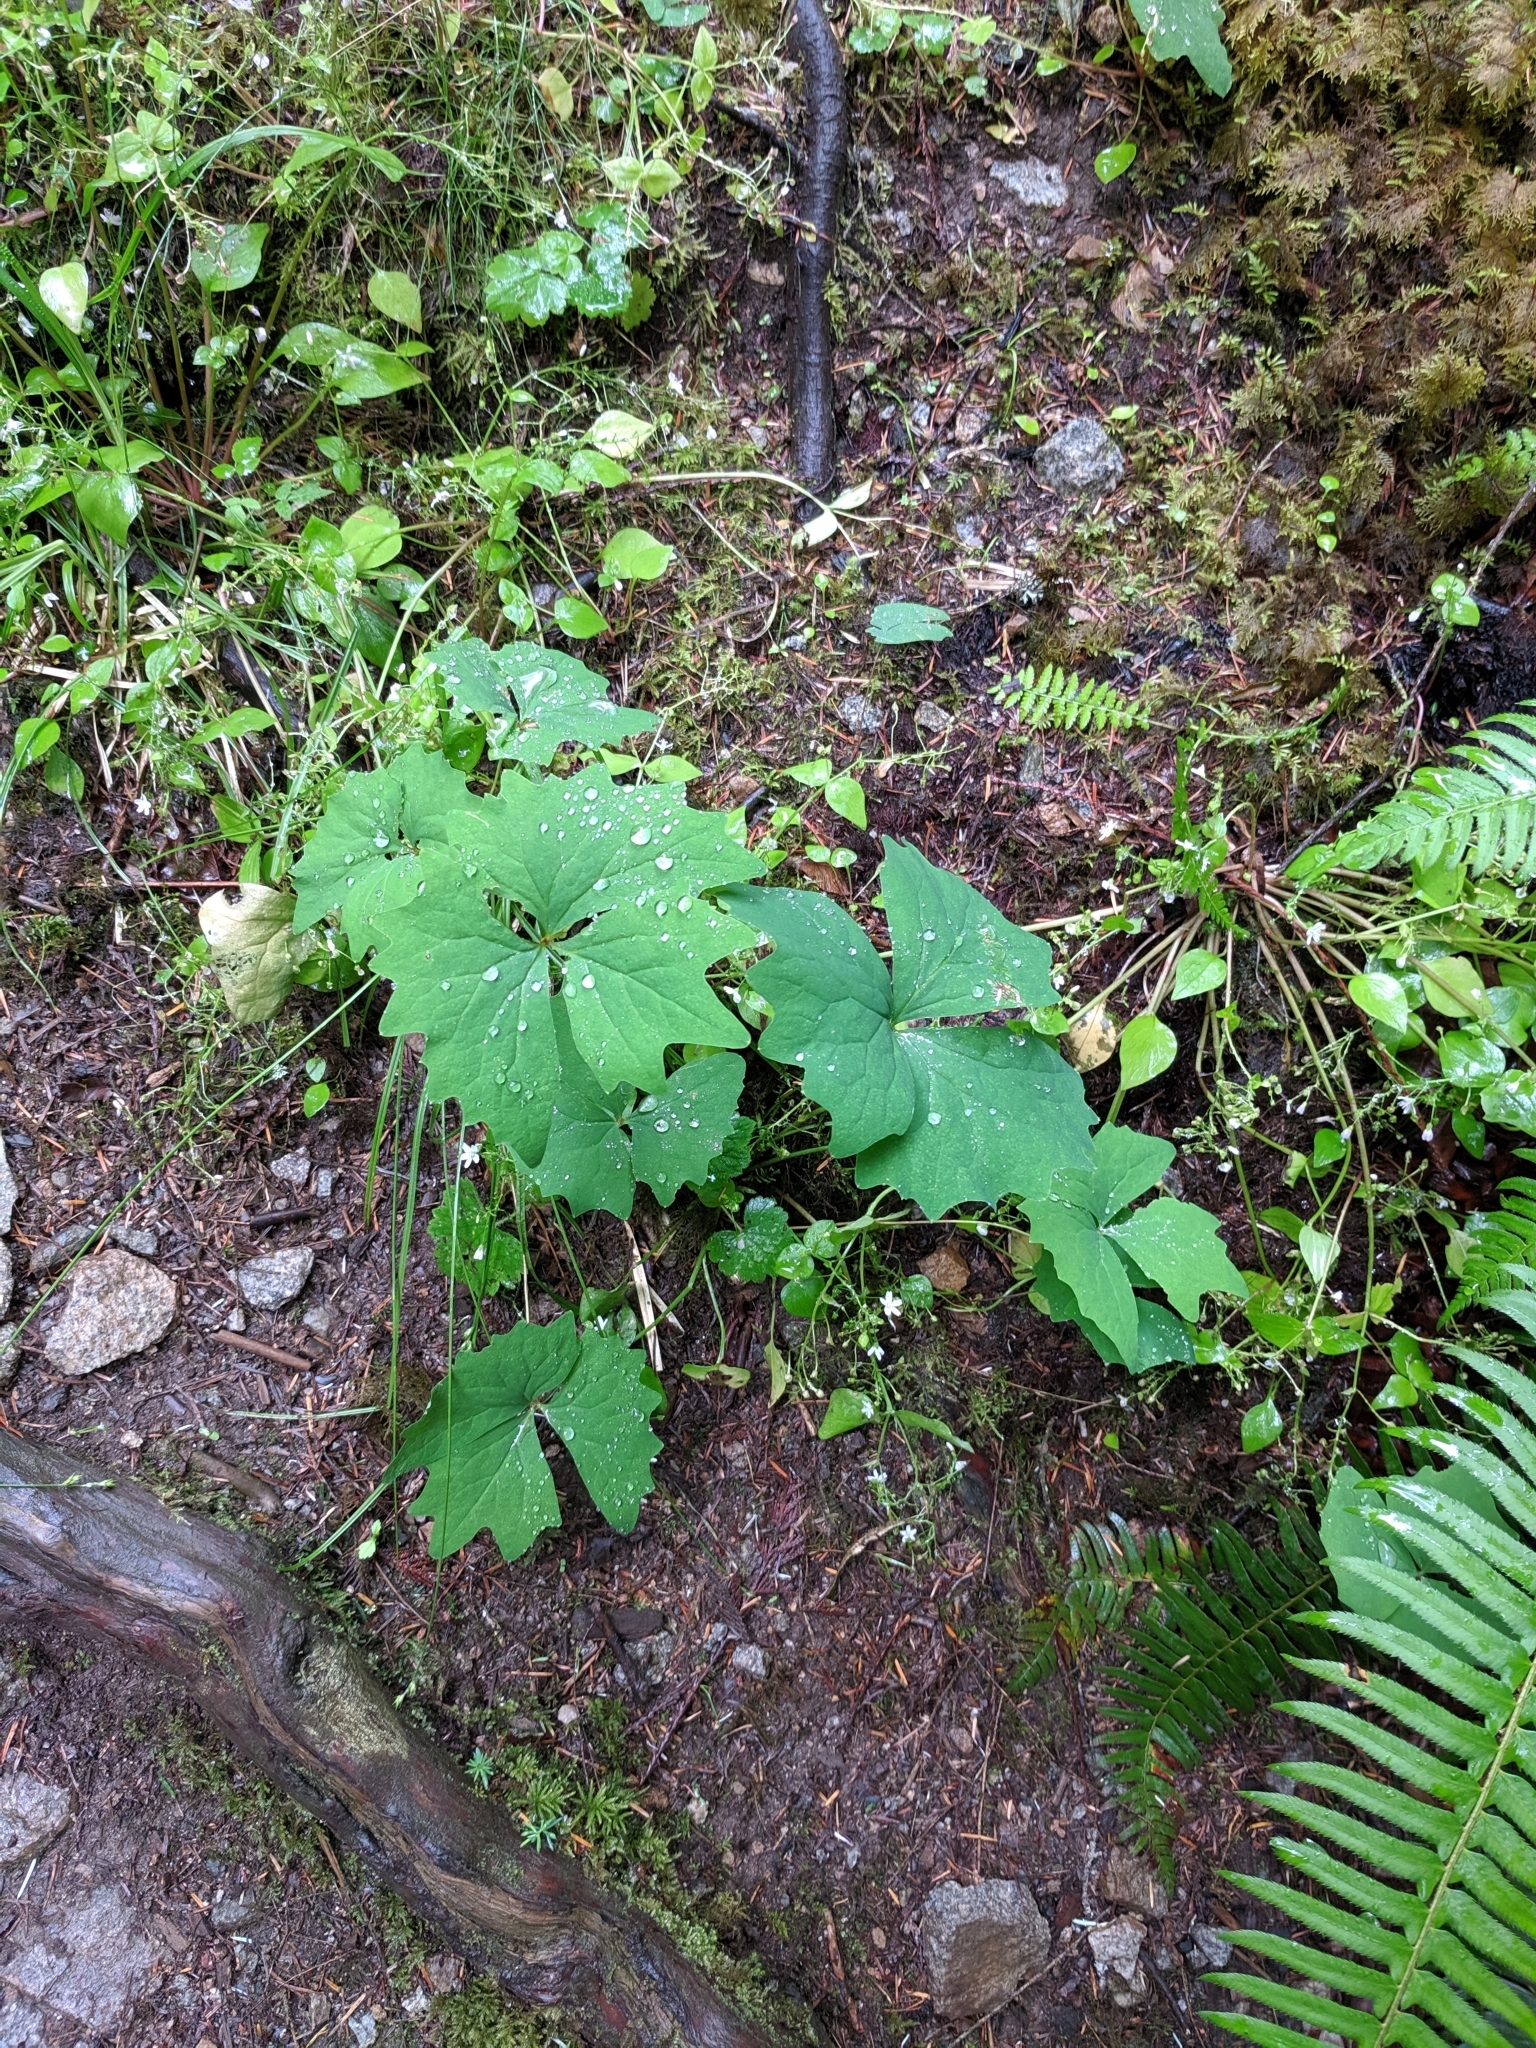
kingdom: Plantae
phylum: Tracheophyta
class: Magnoliopsida
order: Ranunculales
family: Berberidaceae
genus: Achlys
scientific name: Achlys triphylla
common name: Vanilla-leaf
